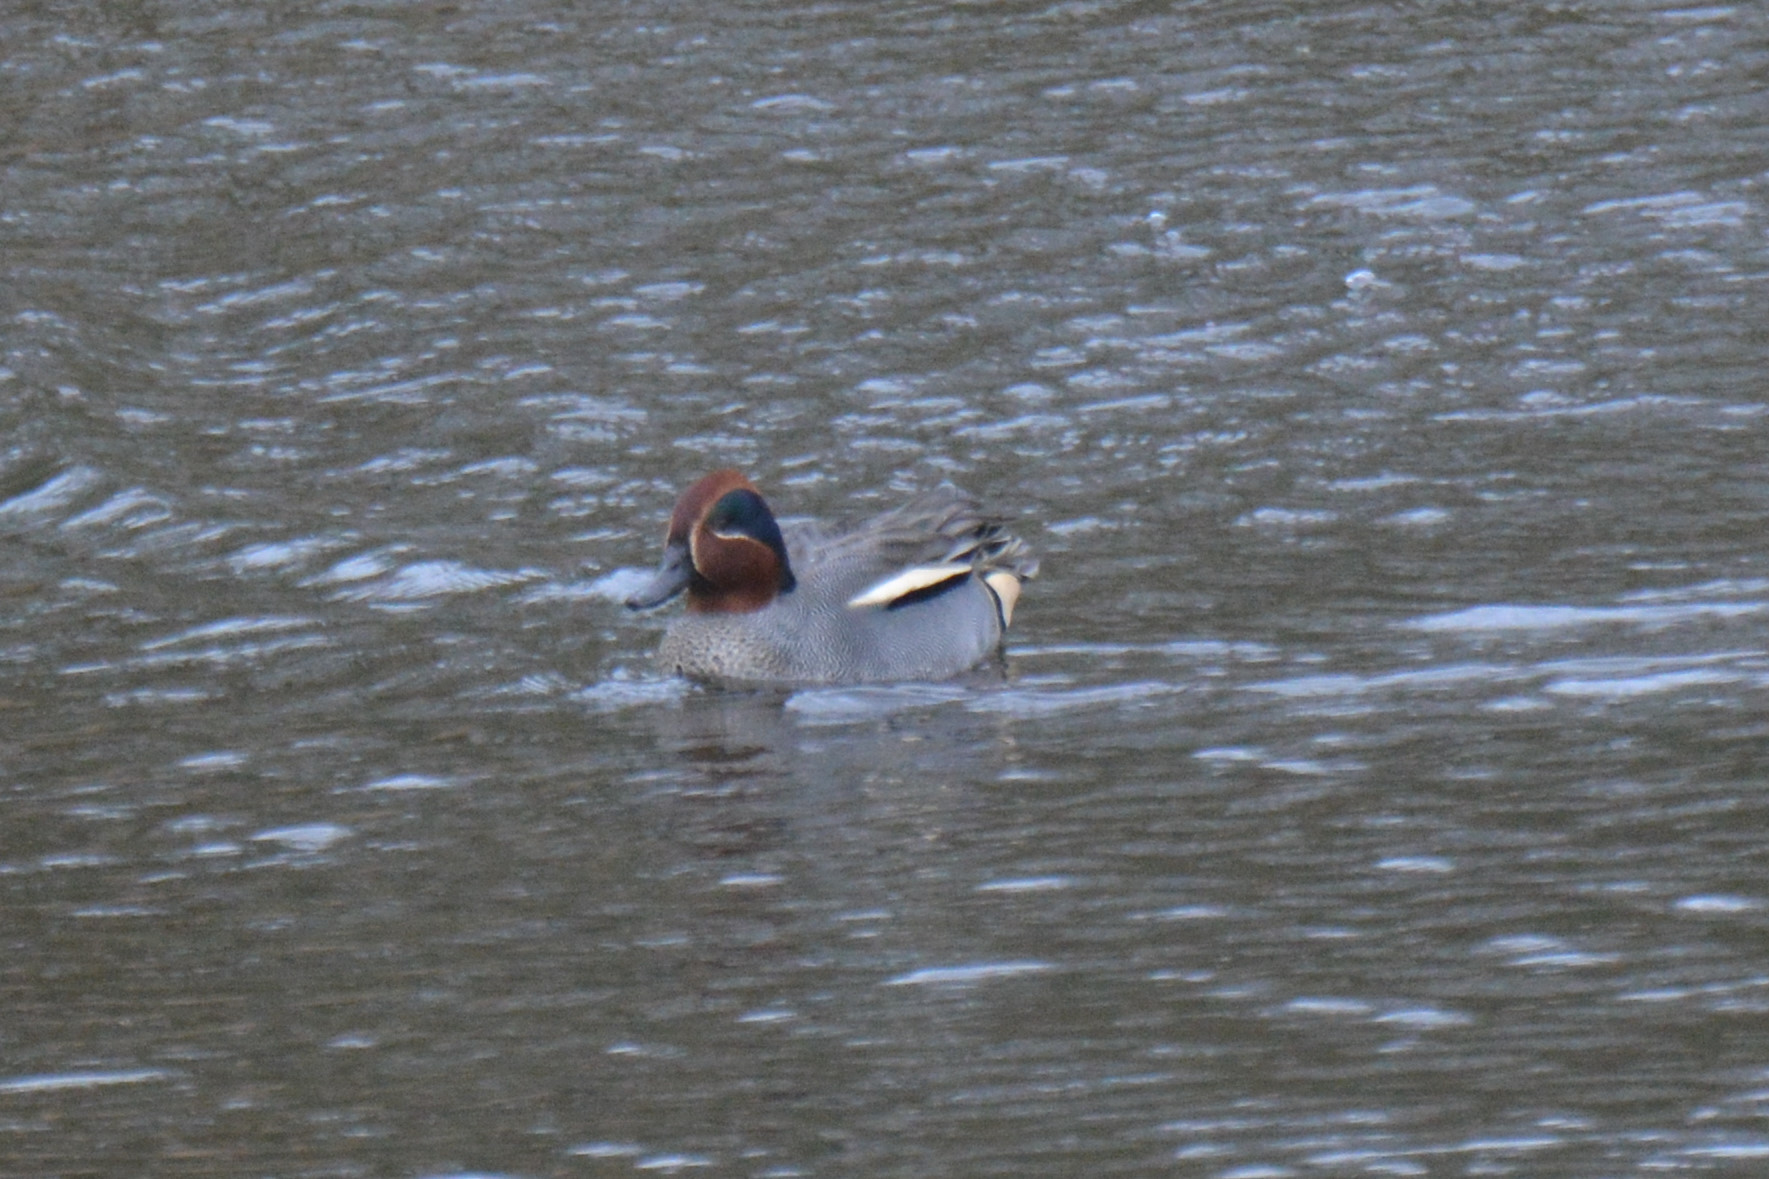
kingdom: Animalia
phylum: Chordata
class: Aves
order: Anseriformes
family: Anatidae
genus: Anas
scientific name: Anas crecca
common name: Eurasian teal
